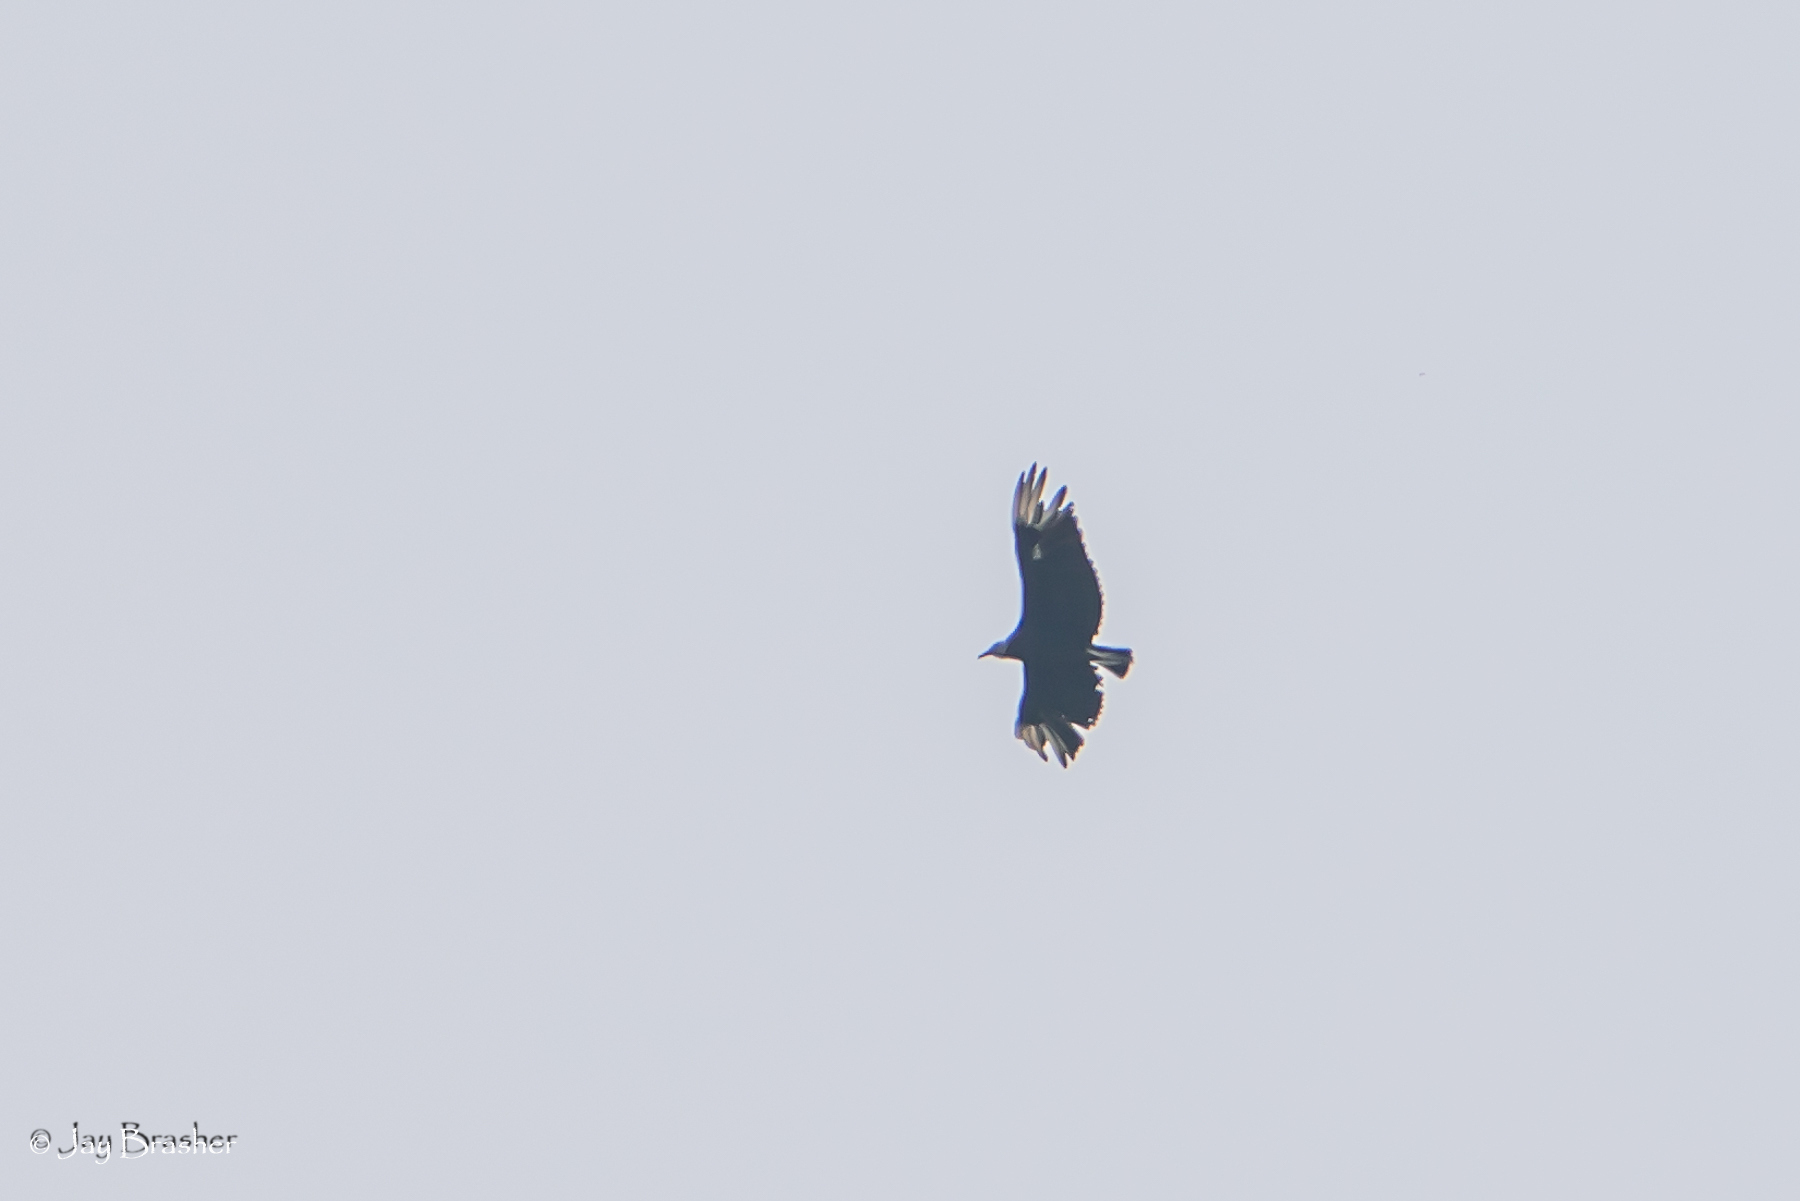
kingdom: Animalia
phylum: Chordata
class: Aves
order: Accipitriformes
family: Cathartidae
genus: Coragyps
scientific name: Coragyps atratus
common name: Black vulture
